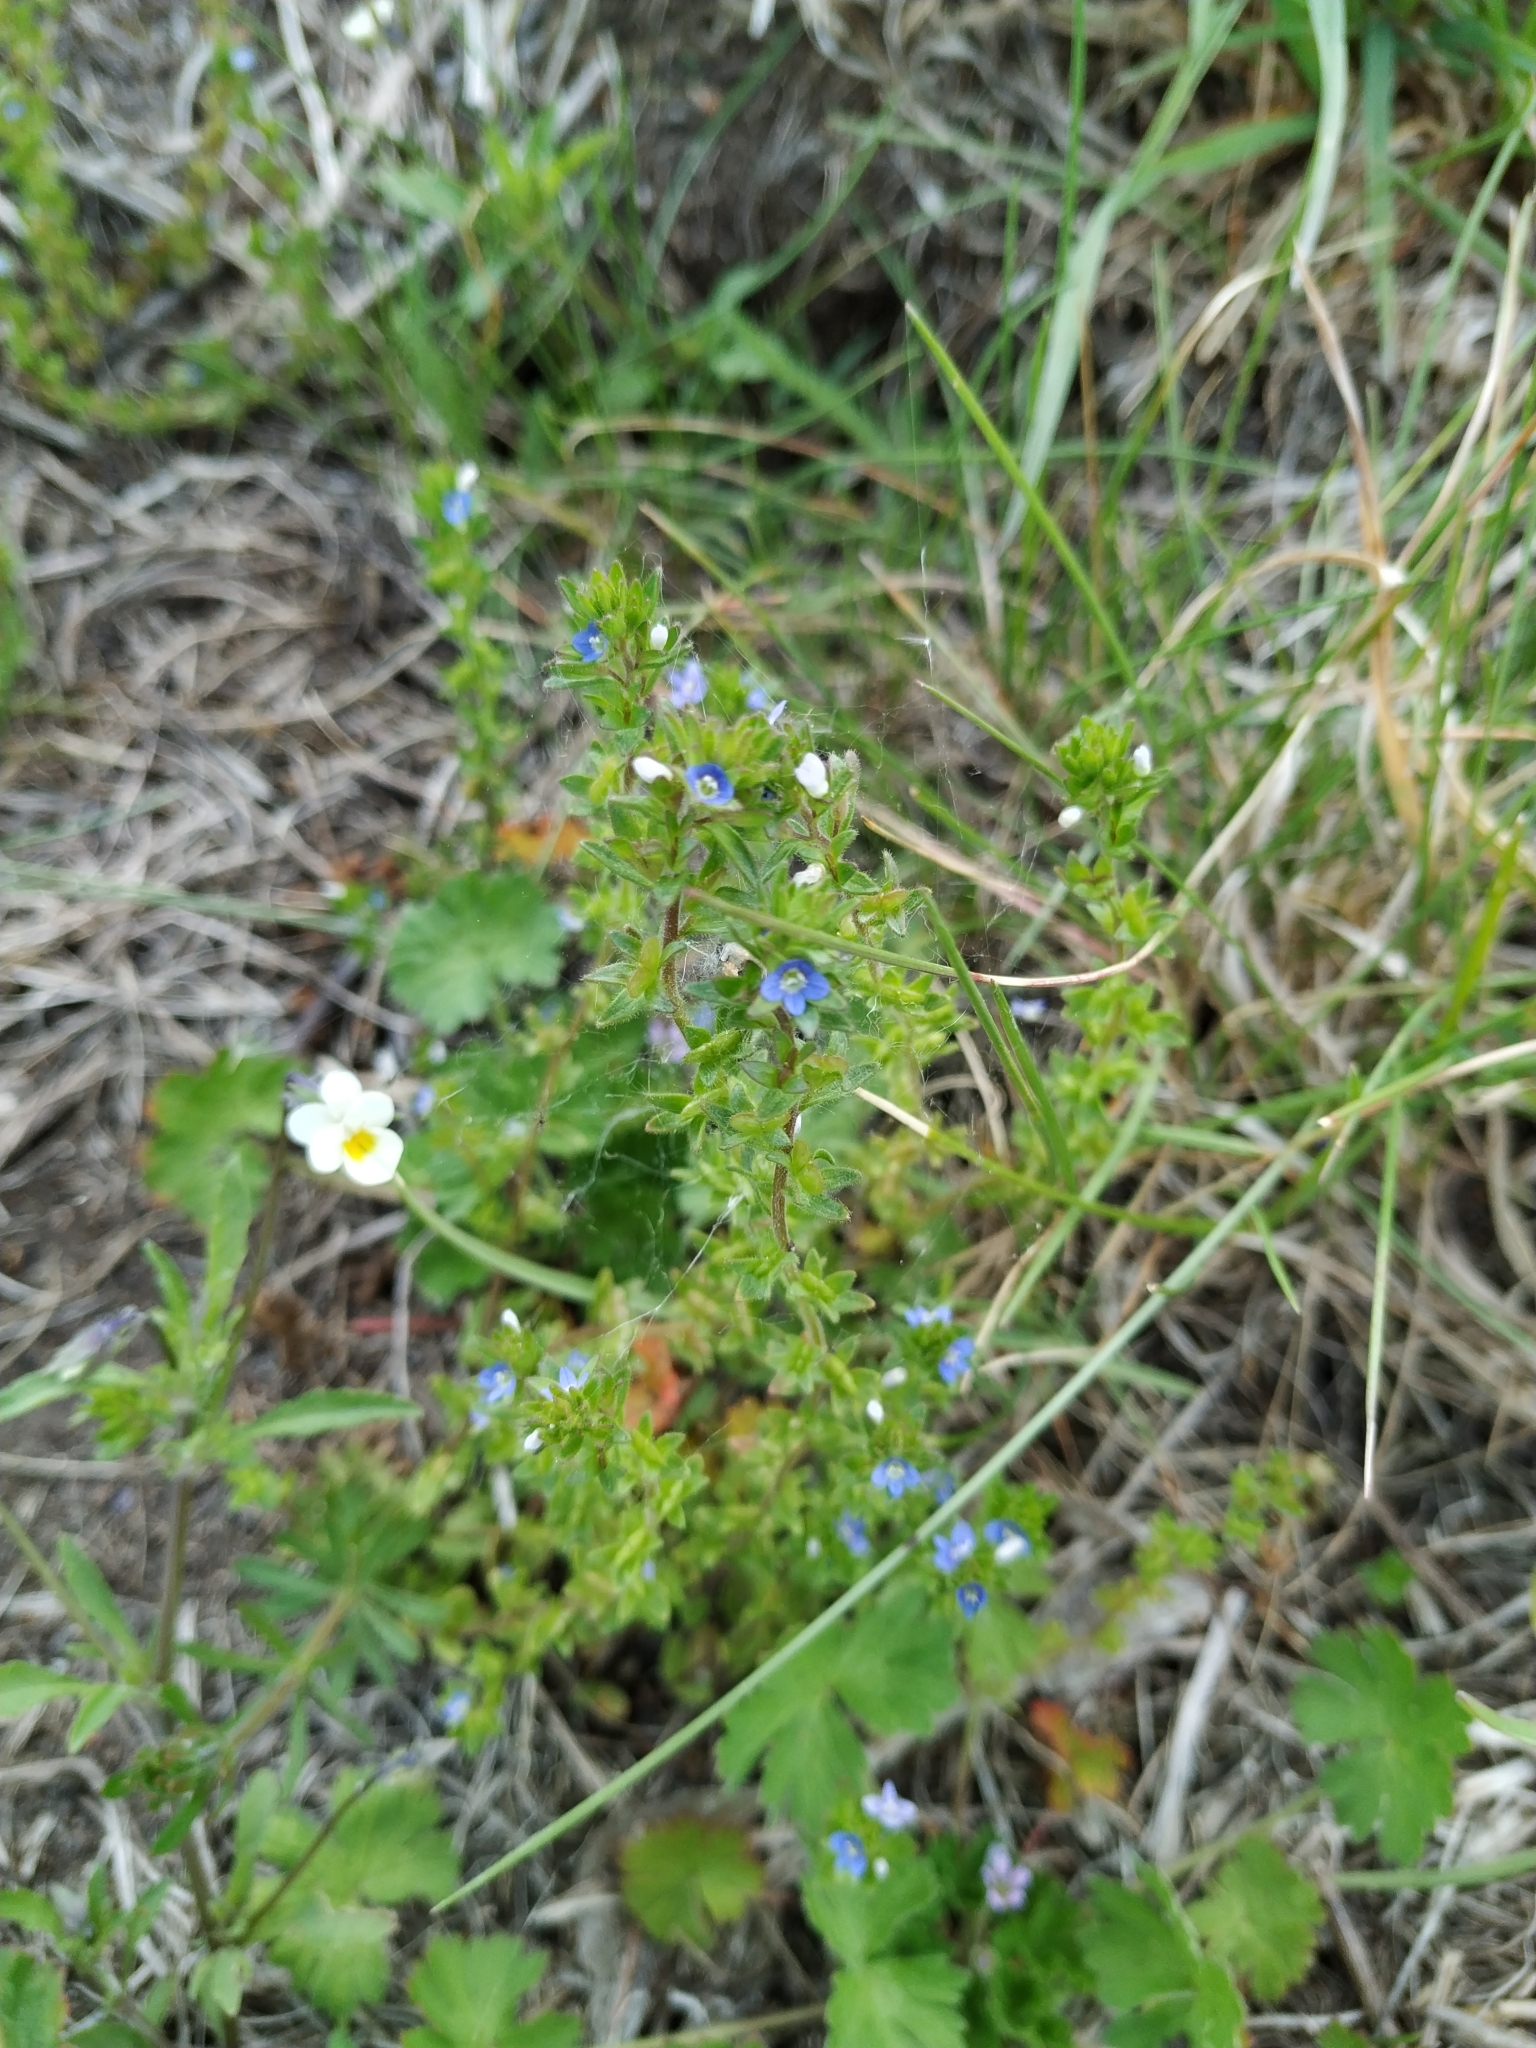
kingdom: Plantae
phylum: Tracheophyta
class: Magnoliopsida
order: Lamiales
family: Plantaginaceae
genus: Veronica
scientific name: Veronica arvensis
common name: Corn speedwell
